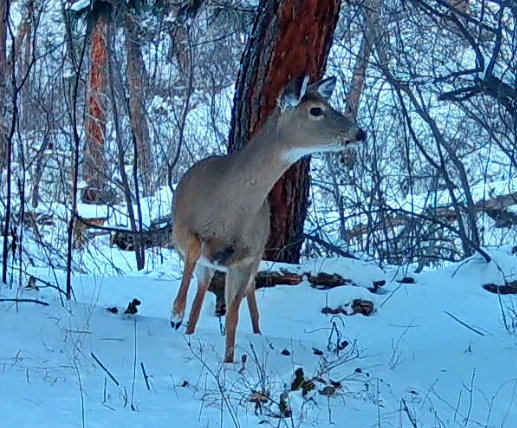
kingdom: Animalia
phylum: Chordata
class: Mammalia
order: Artiodactyla
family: Cervidae
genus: Odocoileus
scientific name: Odocoileus virginianus
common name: White-tailed deer
